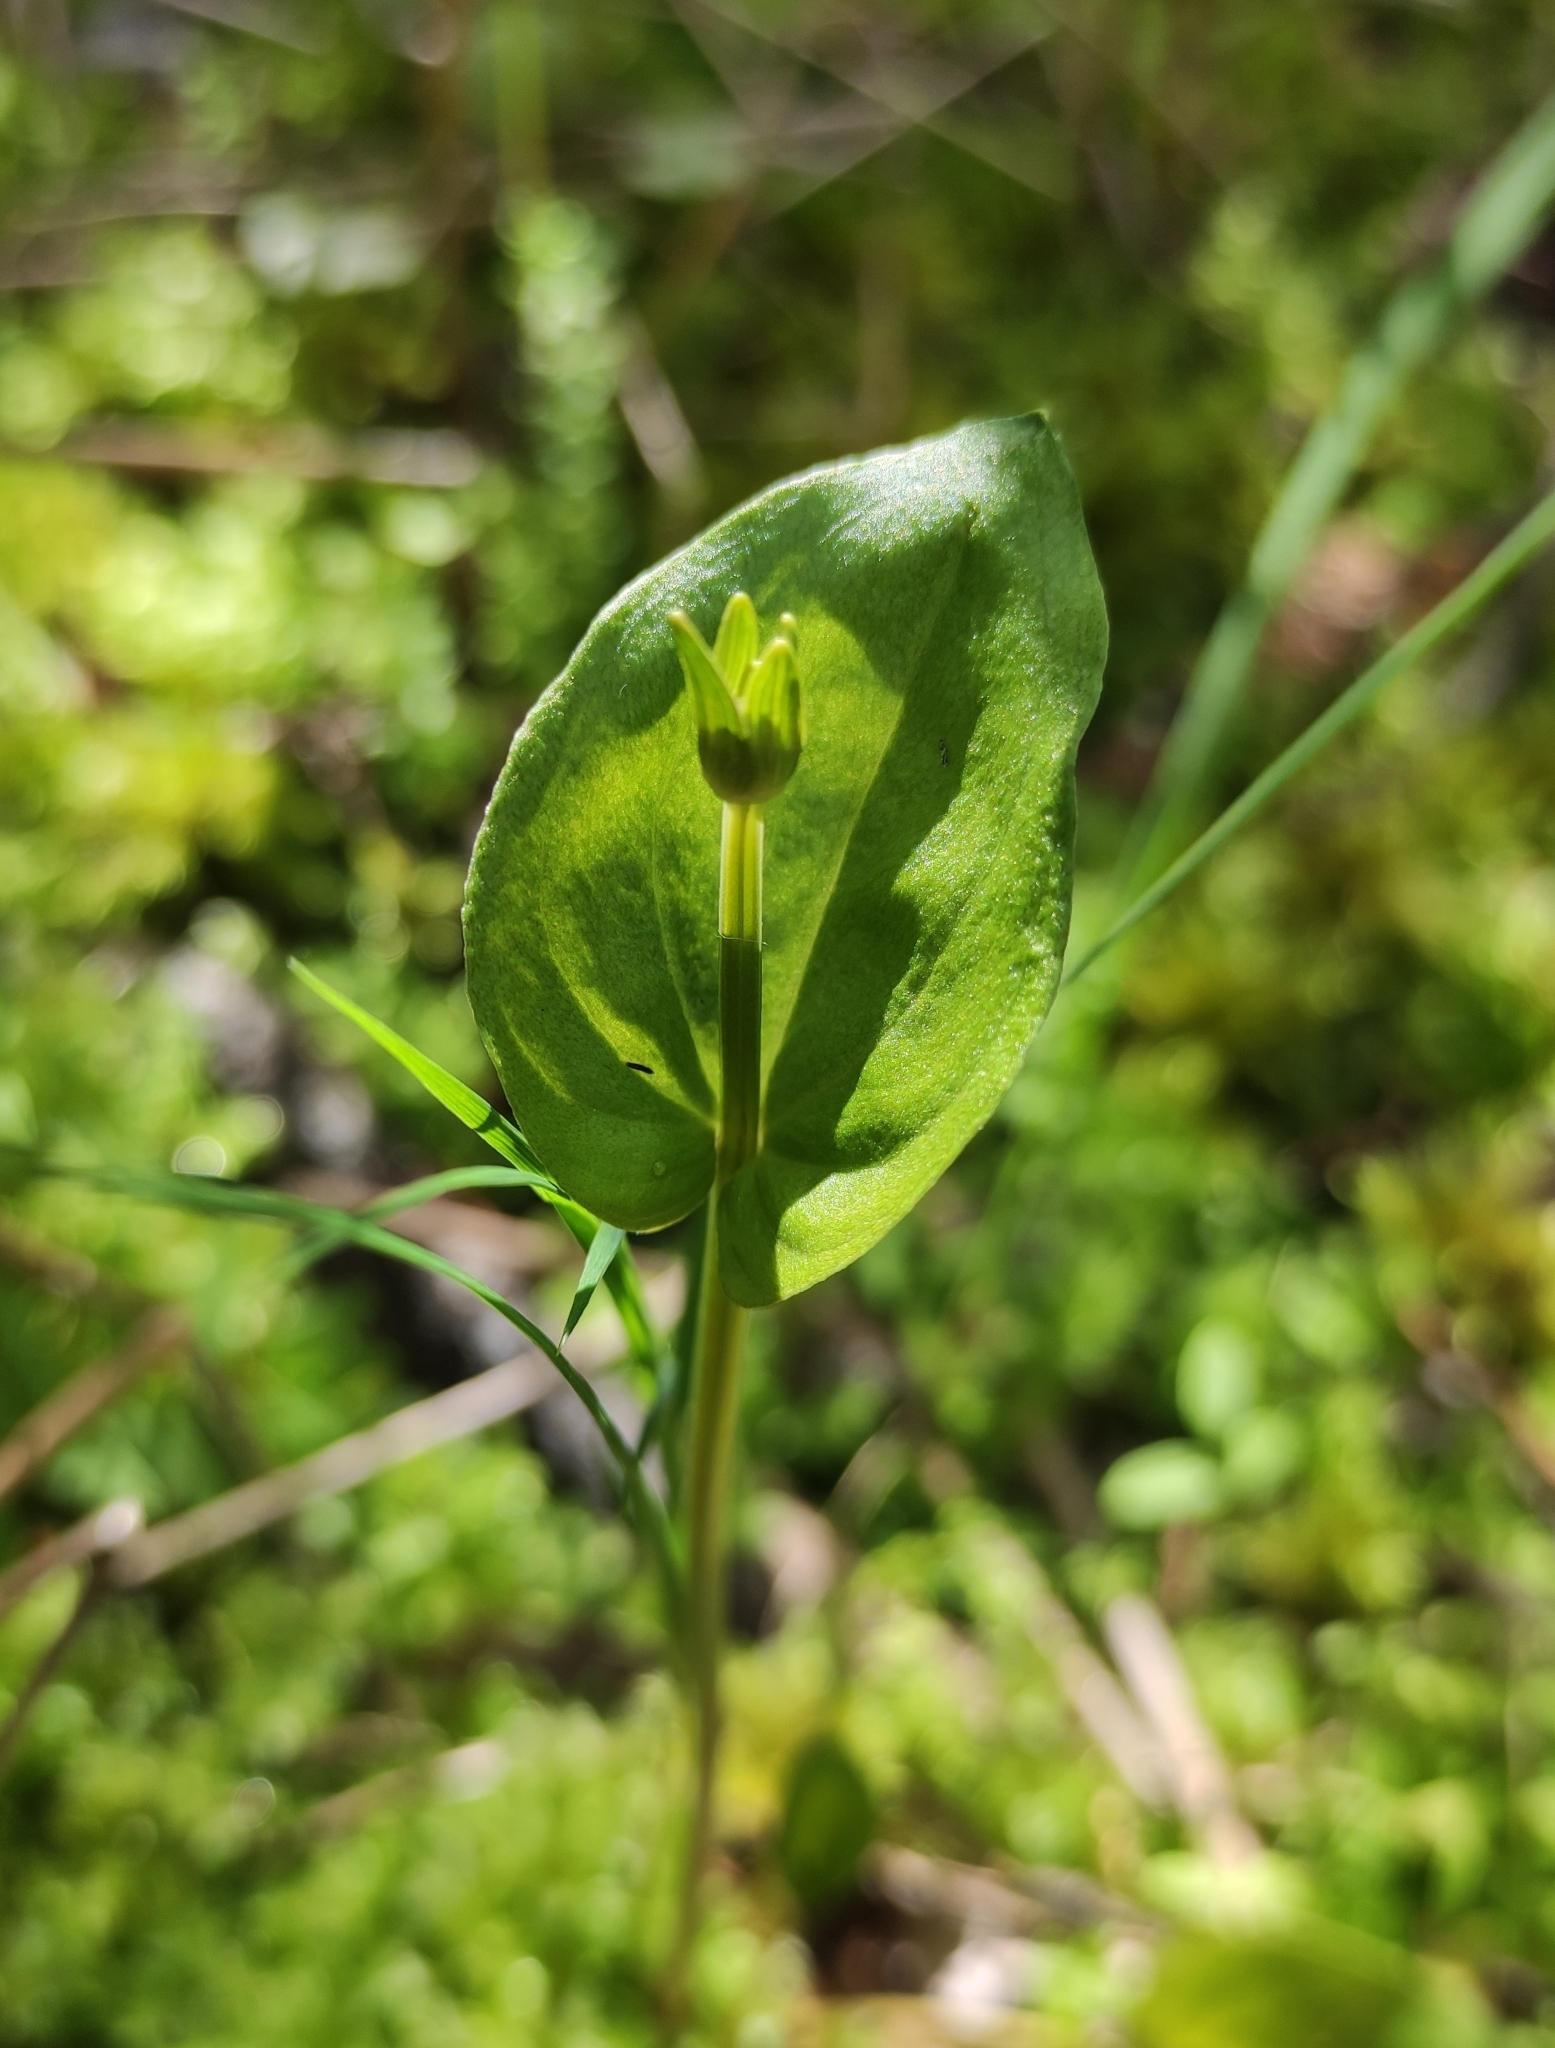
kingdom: Plantae
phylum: Tracheophyta
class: Magnoliopsida
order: Celastrales
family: Parnassiaceae
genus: Parnassia
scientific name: Parnassia palustris
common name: Grass-of-parnassus
